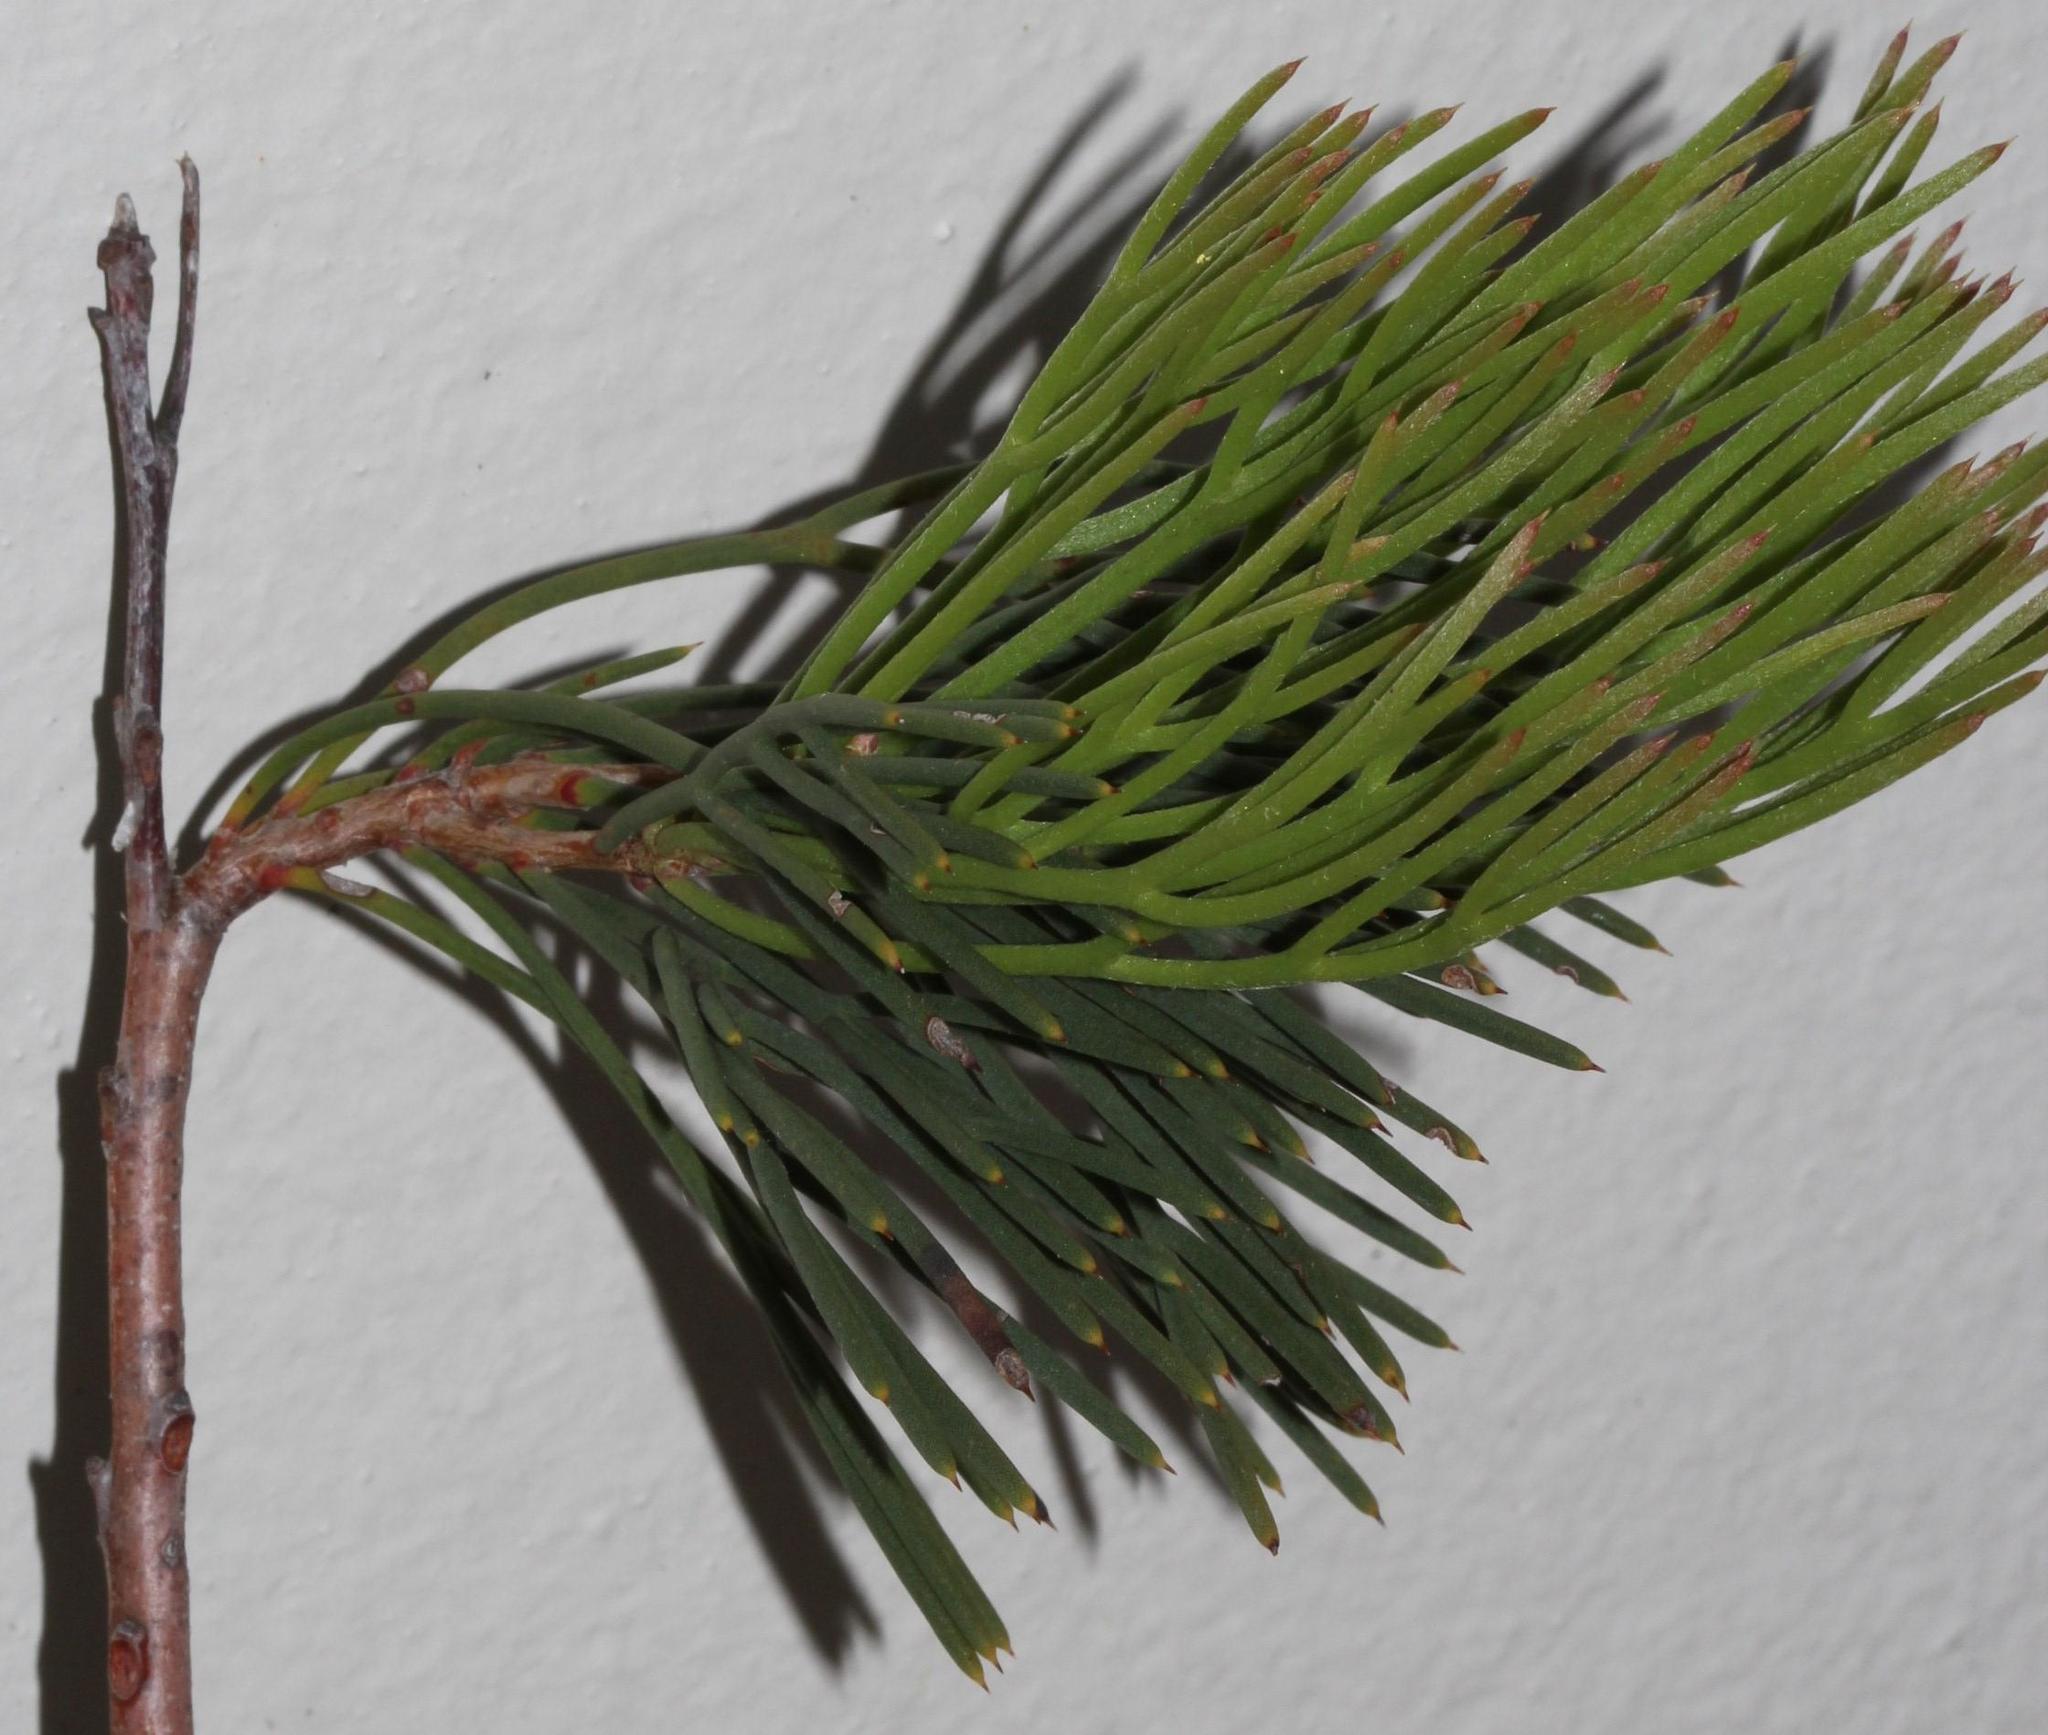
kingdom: Plantae
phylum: Tracheophyta
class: Magnoliopsida
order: Proteales
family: Proteaceae
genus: Hakea
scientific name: Hakea drupacea
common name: Sweet hakea
